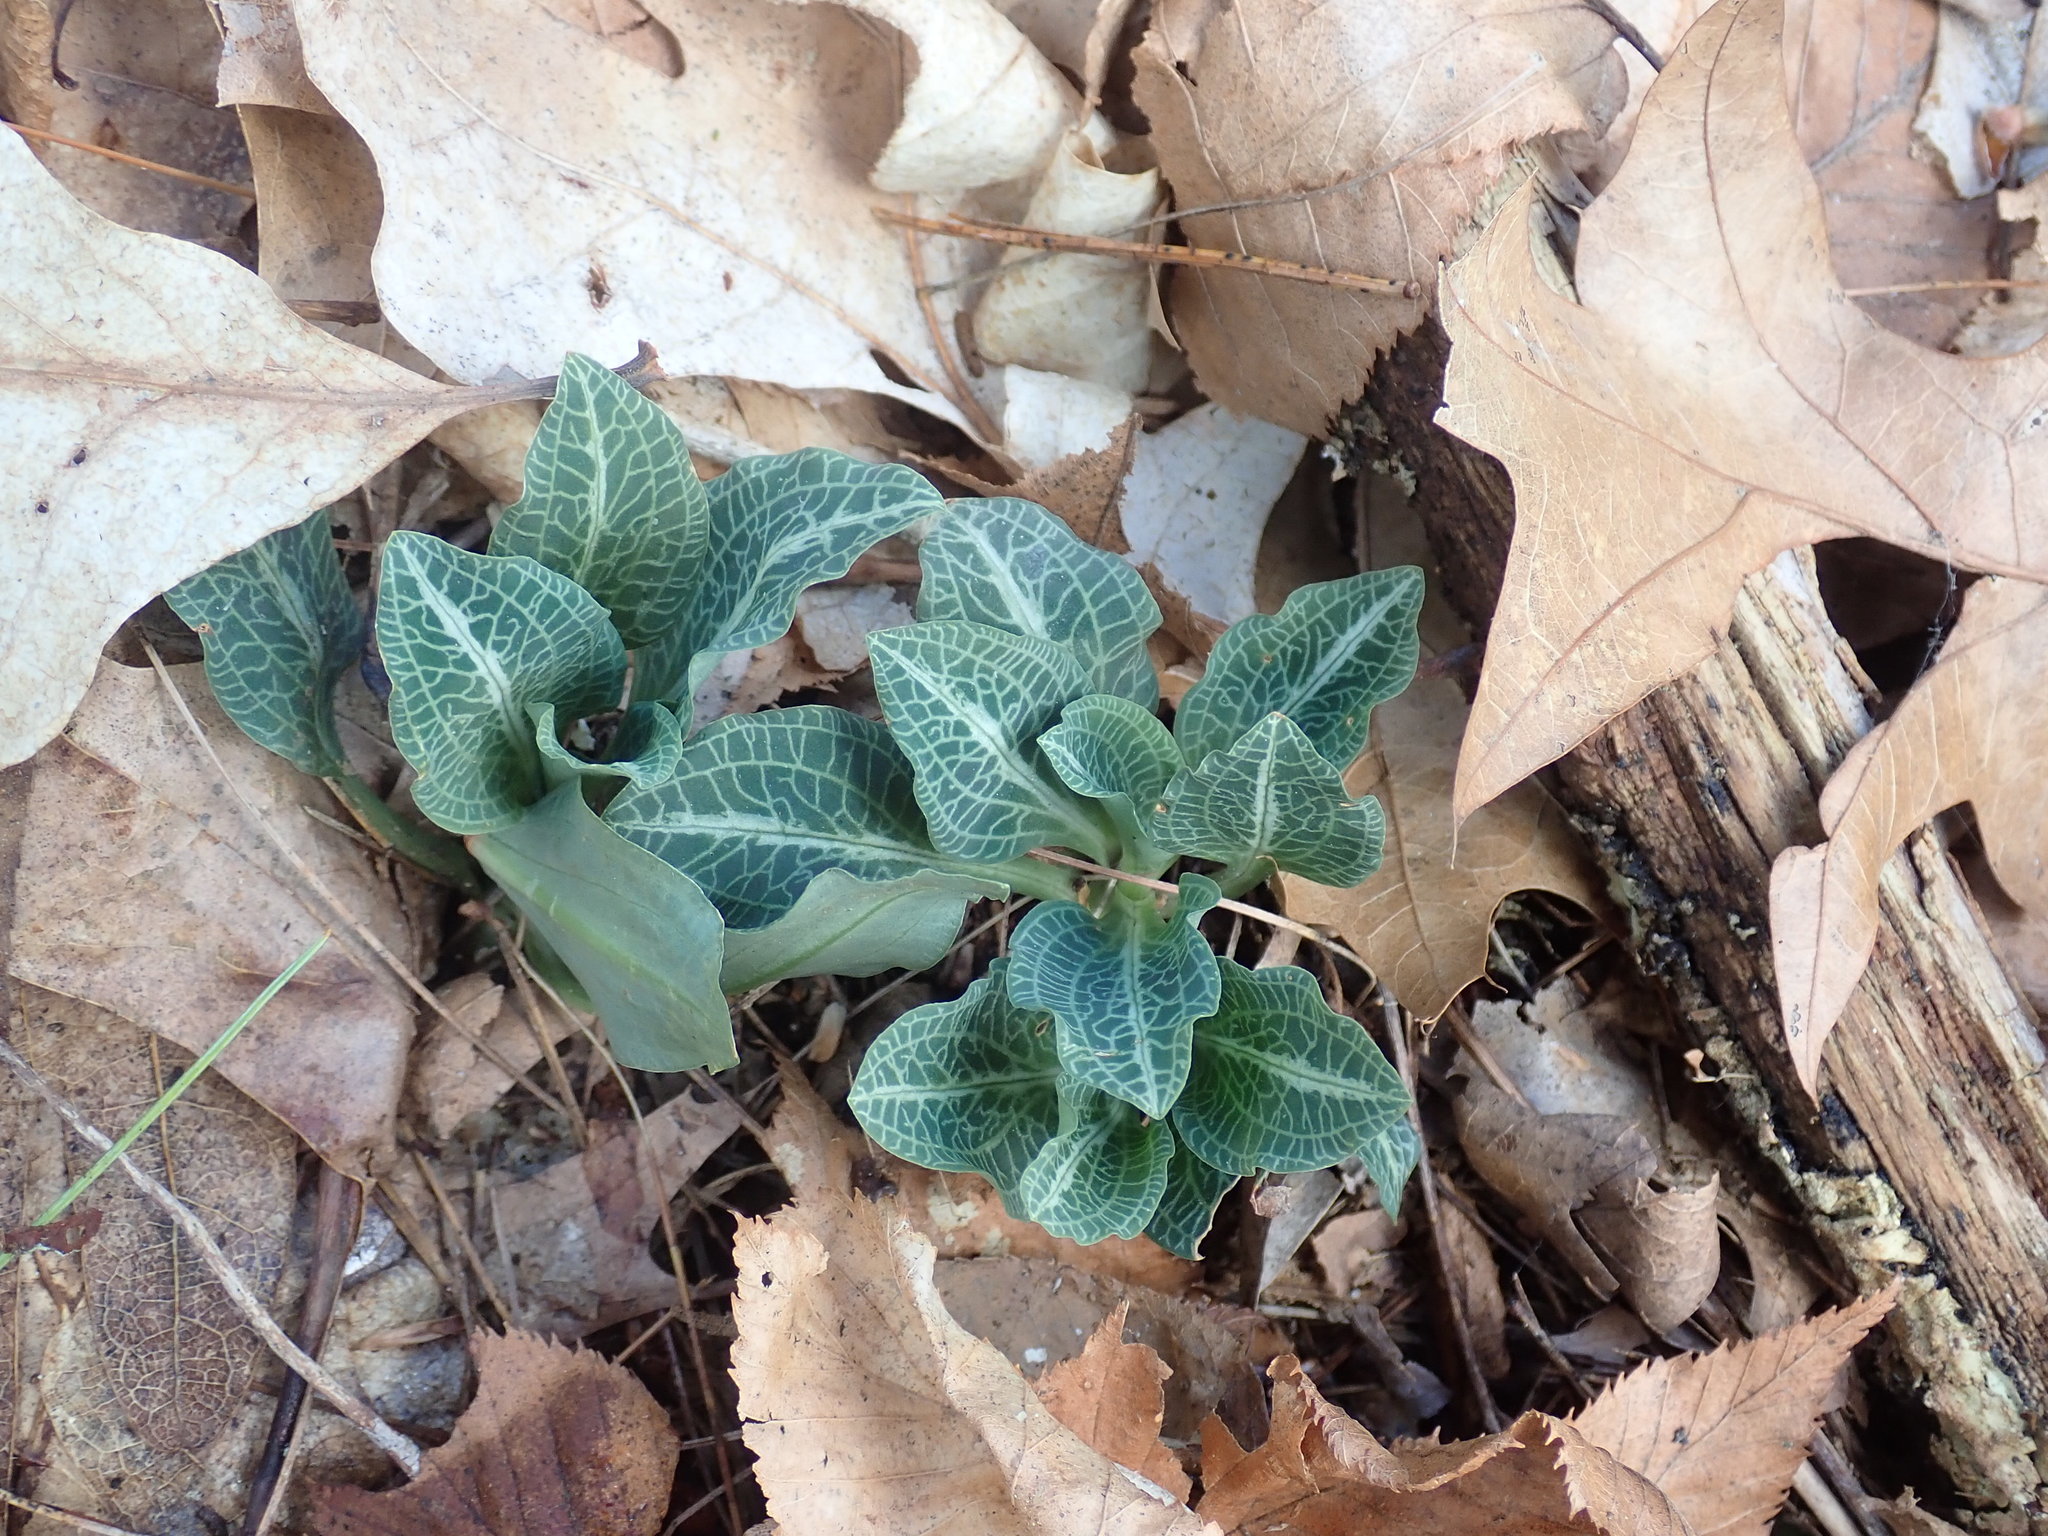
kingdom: Plantae
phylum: Tracheophyta
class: Liliopsida
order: Asparagales
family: Orchidaceae
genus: Goodyera
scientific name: Goodyera pubescens
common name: Downy rattlesnake-plantain
